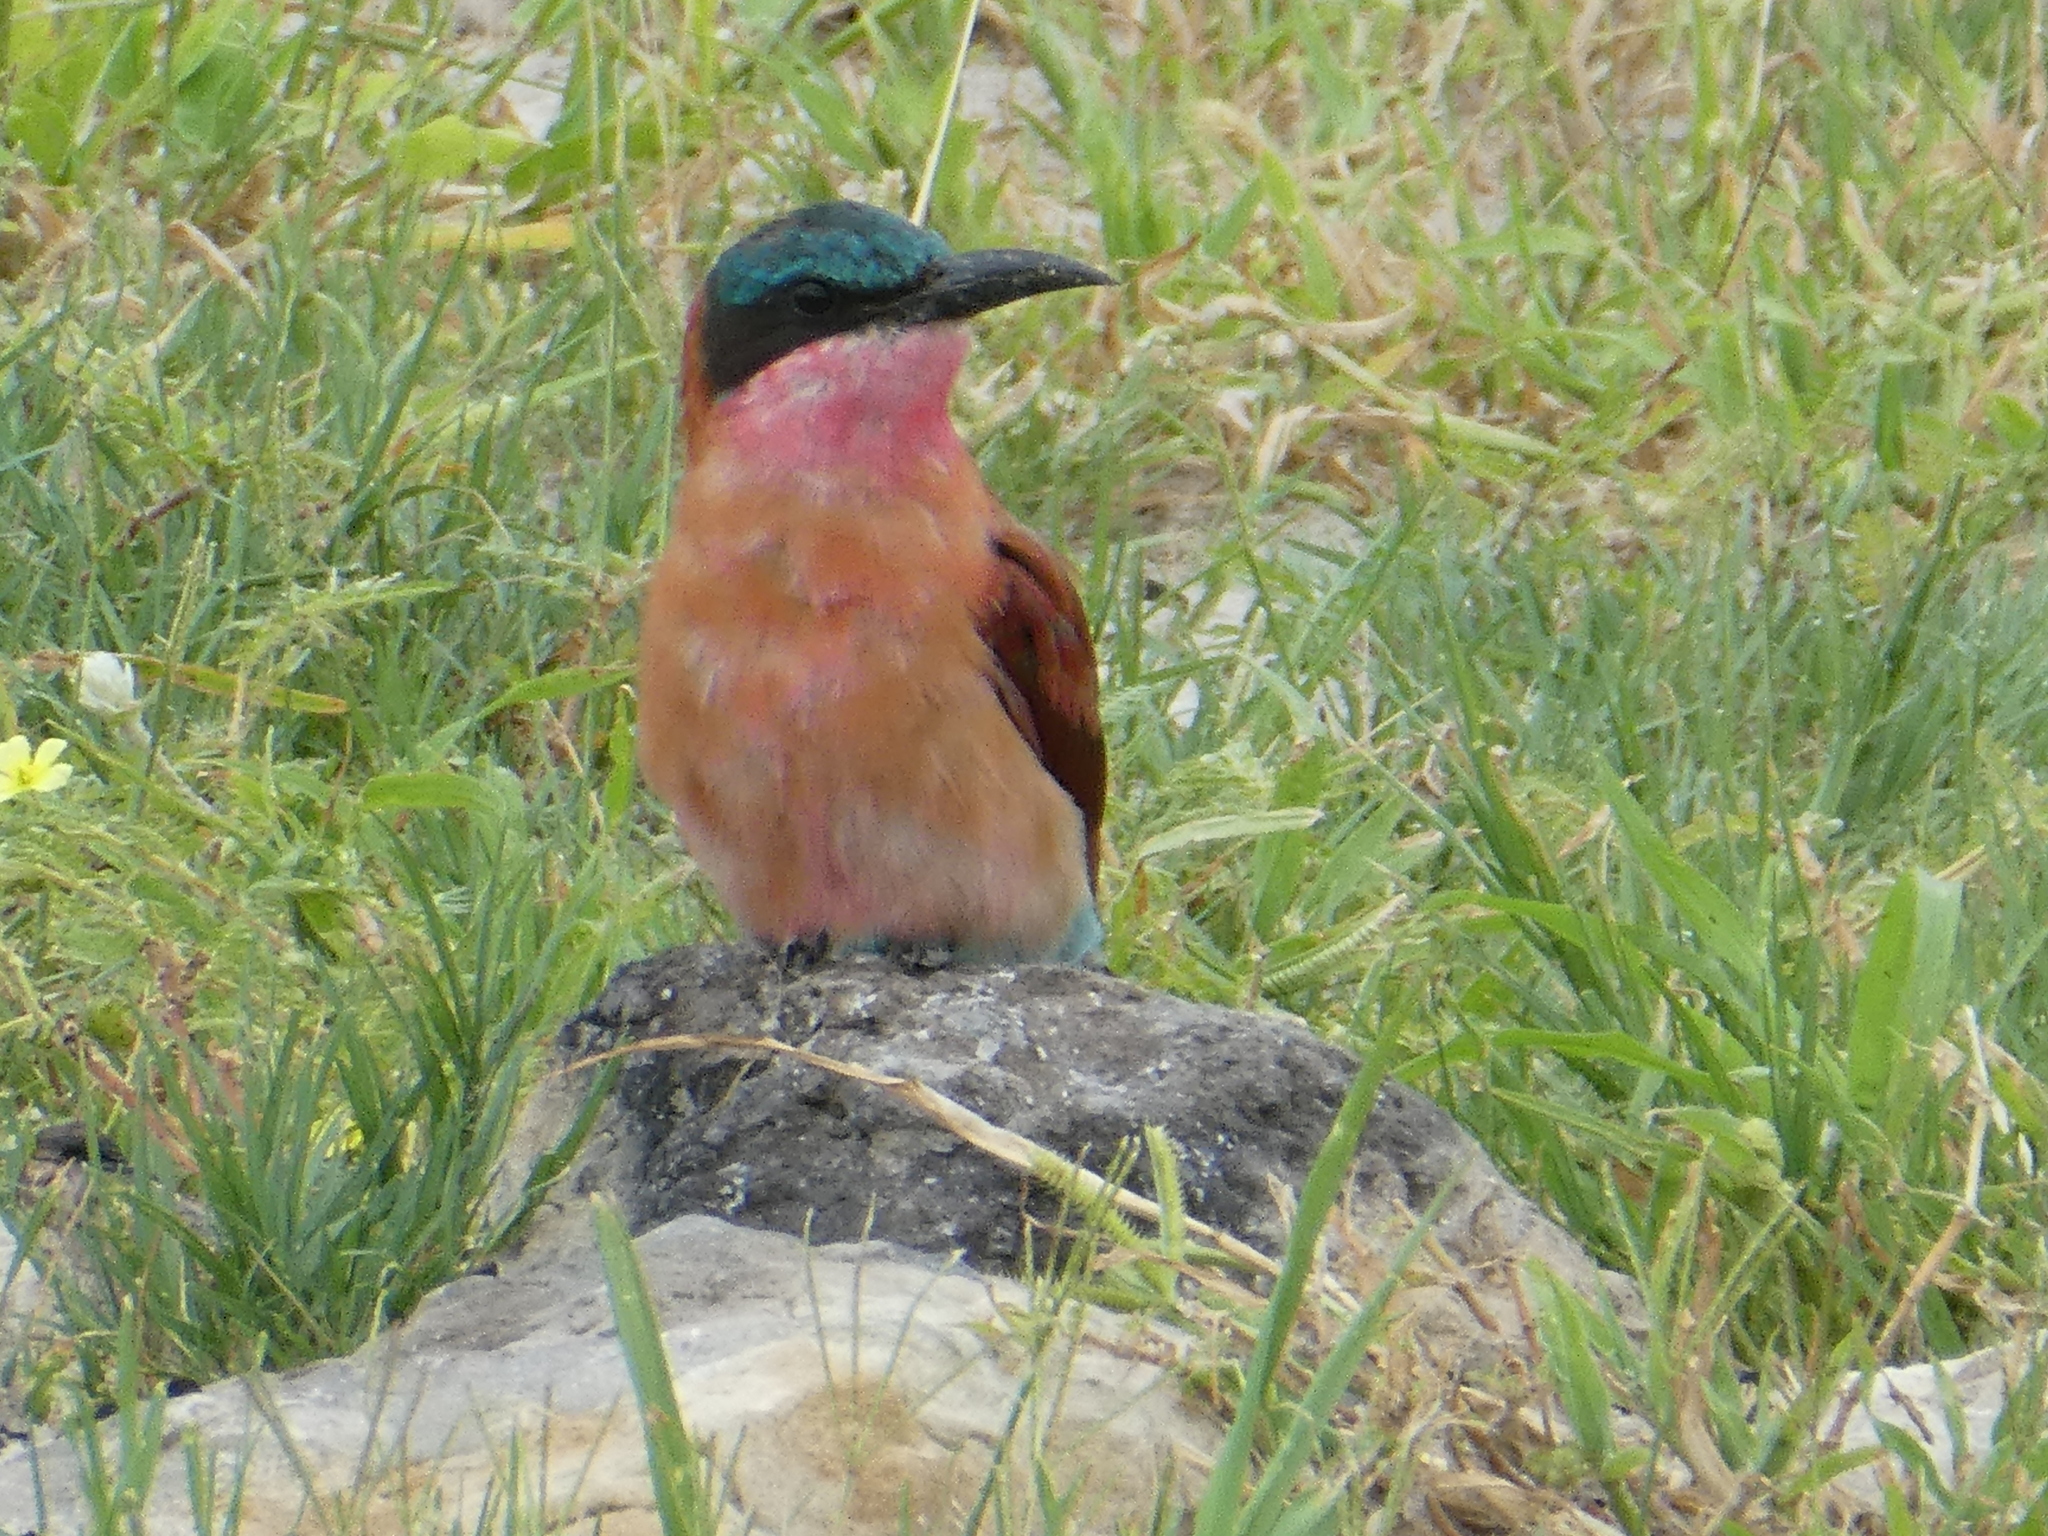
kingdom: Animalia
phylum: Chordata
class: Aves
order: Coraciiformes
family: Meropidae
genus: Merops
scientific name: Merops nubicoides
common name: Southern carmine bee-eater
